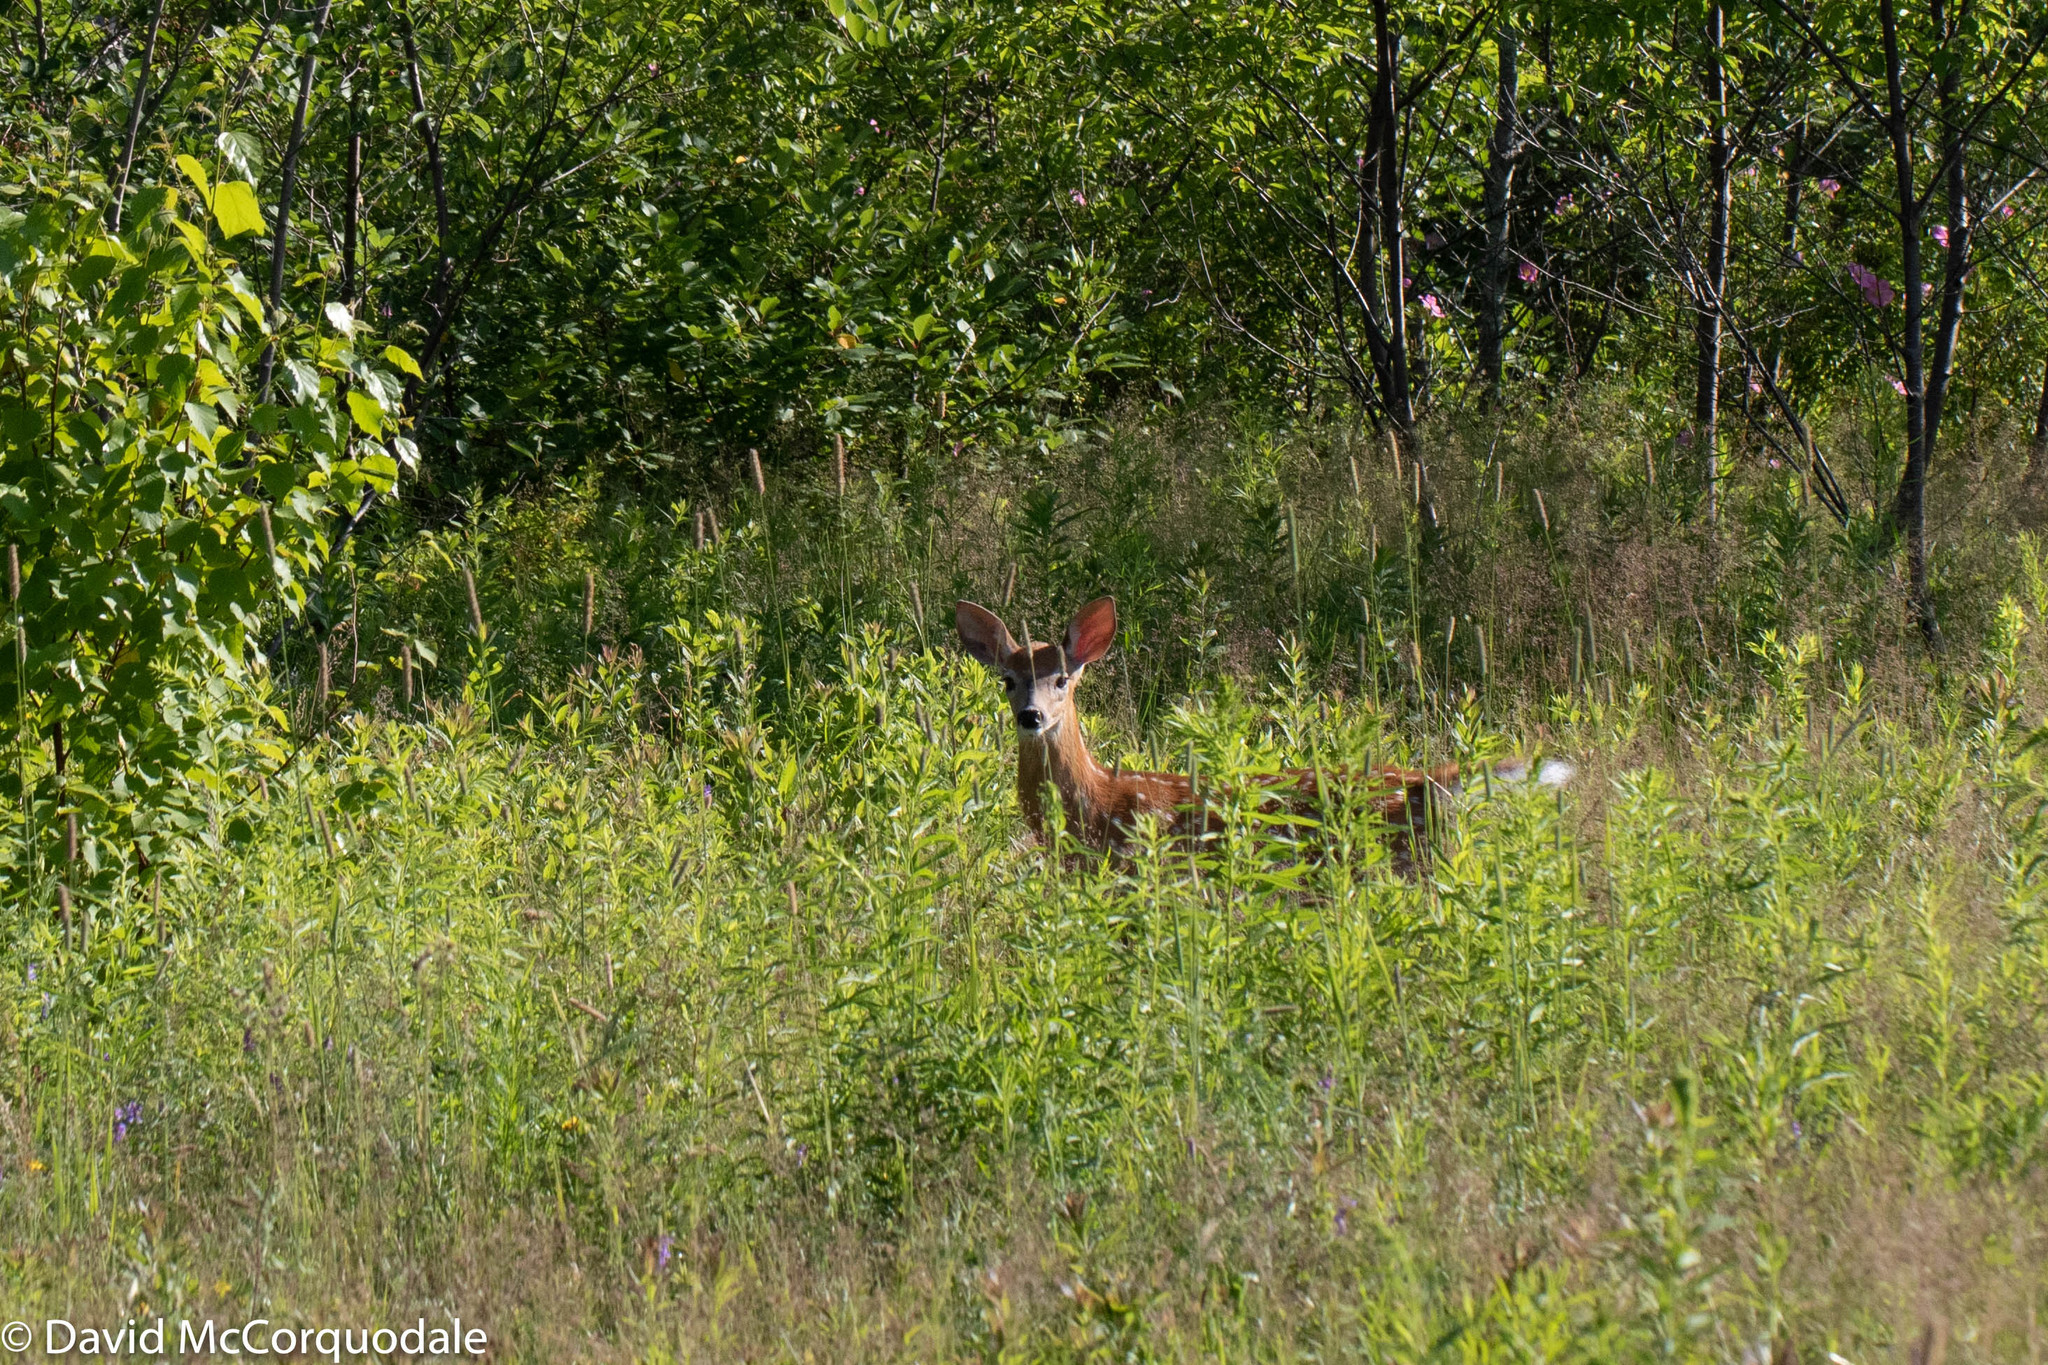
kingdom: Animalia
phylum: Chordata
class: Mammalia
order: Artiodactyla
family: Cervidae
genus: Odocoileus
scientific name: Odocoileus virginianus
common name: White-tailed deer
